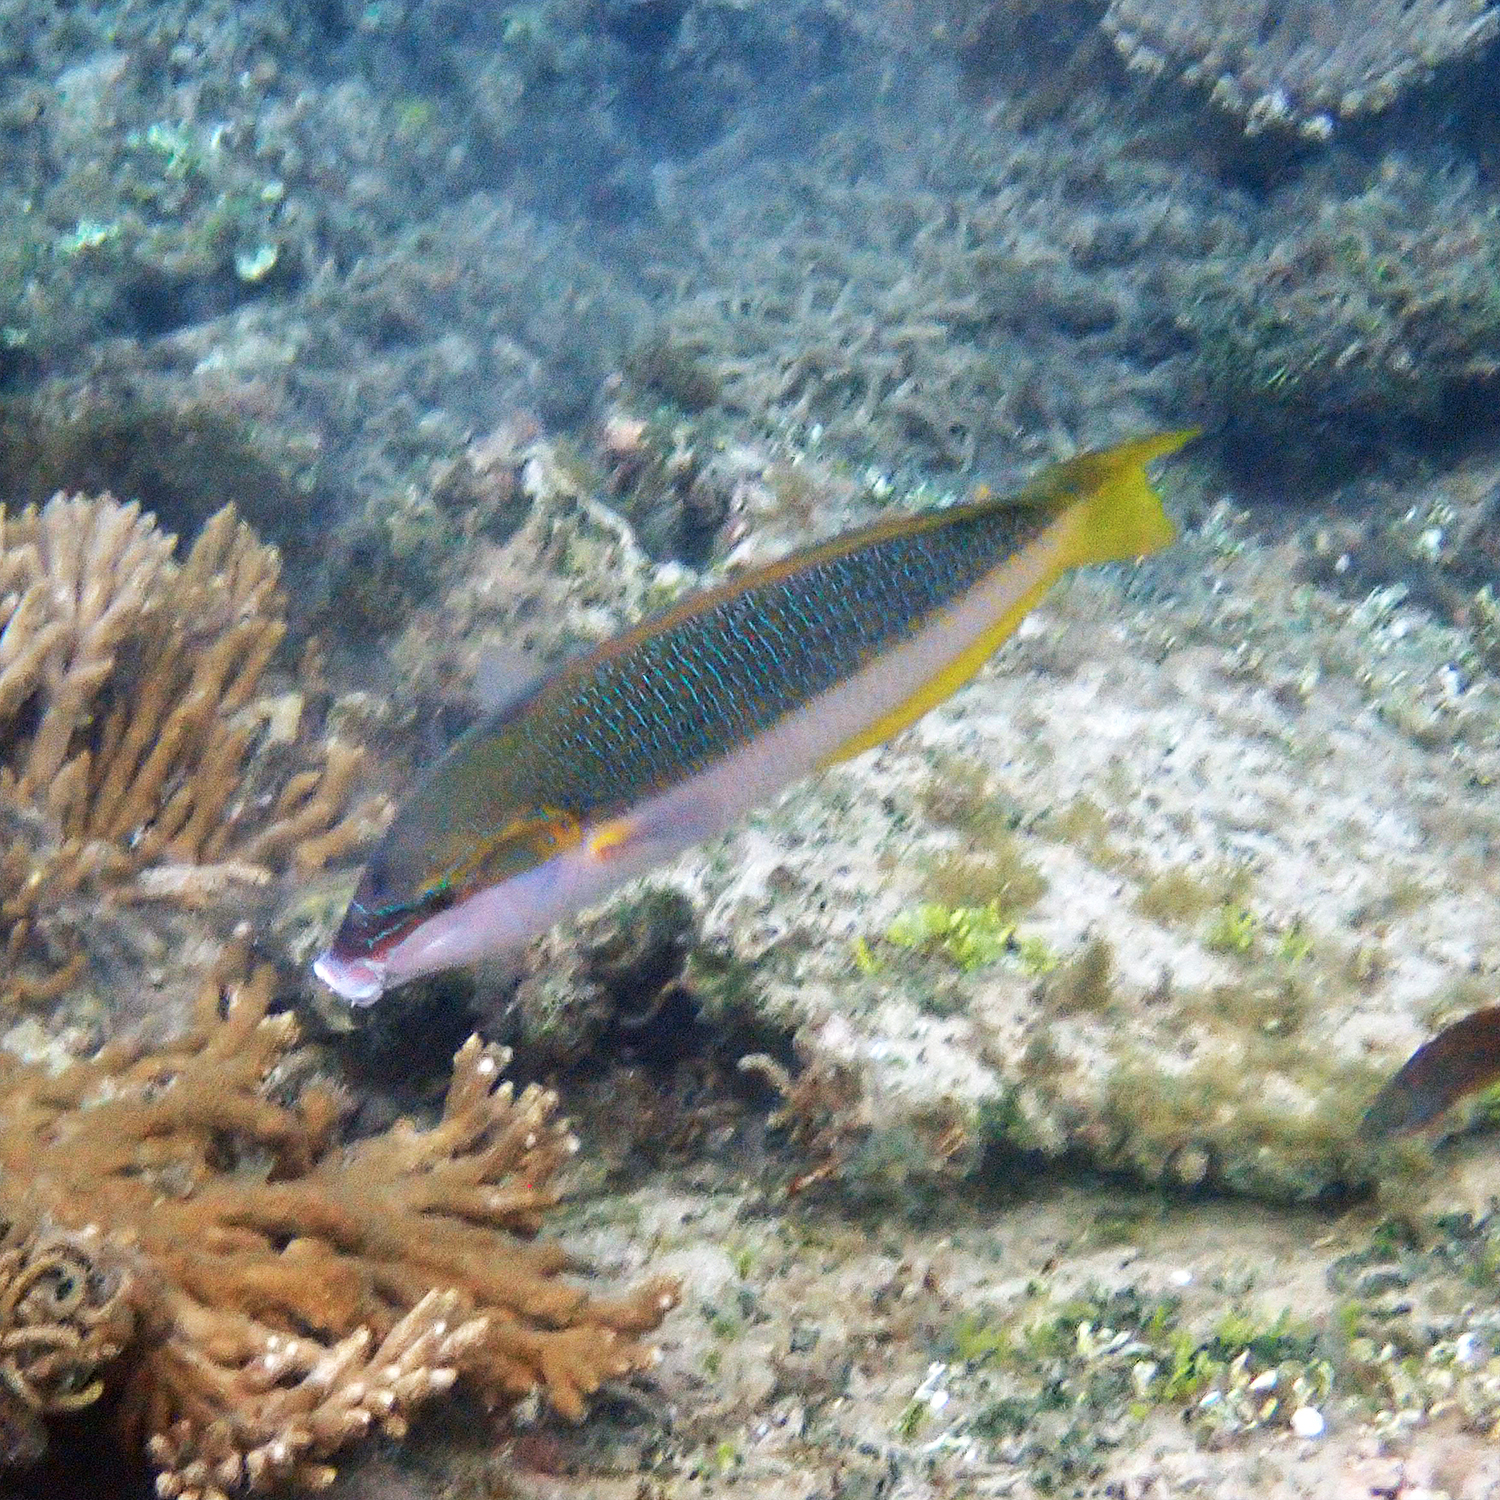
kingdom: Animalia
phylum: Chordata
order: Perciformes
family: Labridae
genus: Anampses
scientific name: Anampses elegans
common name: Elegant wrasse
